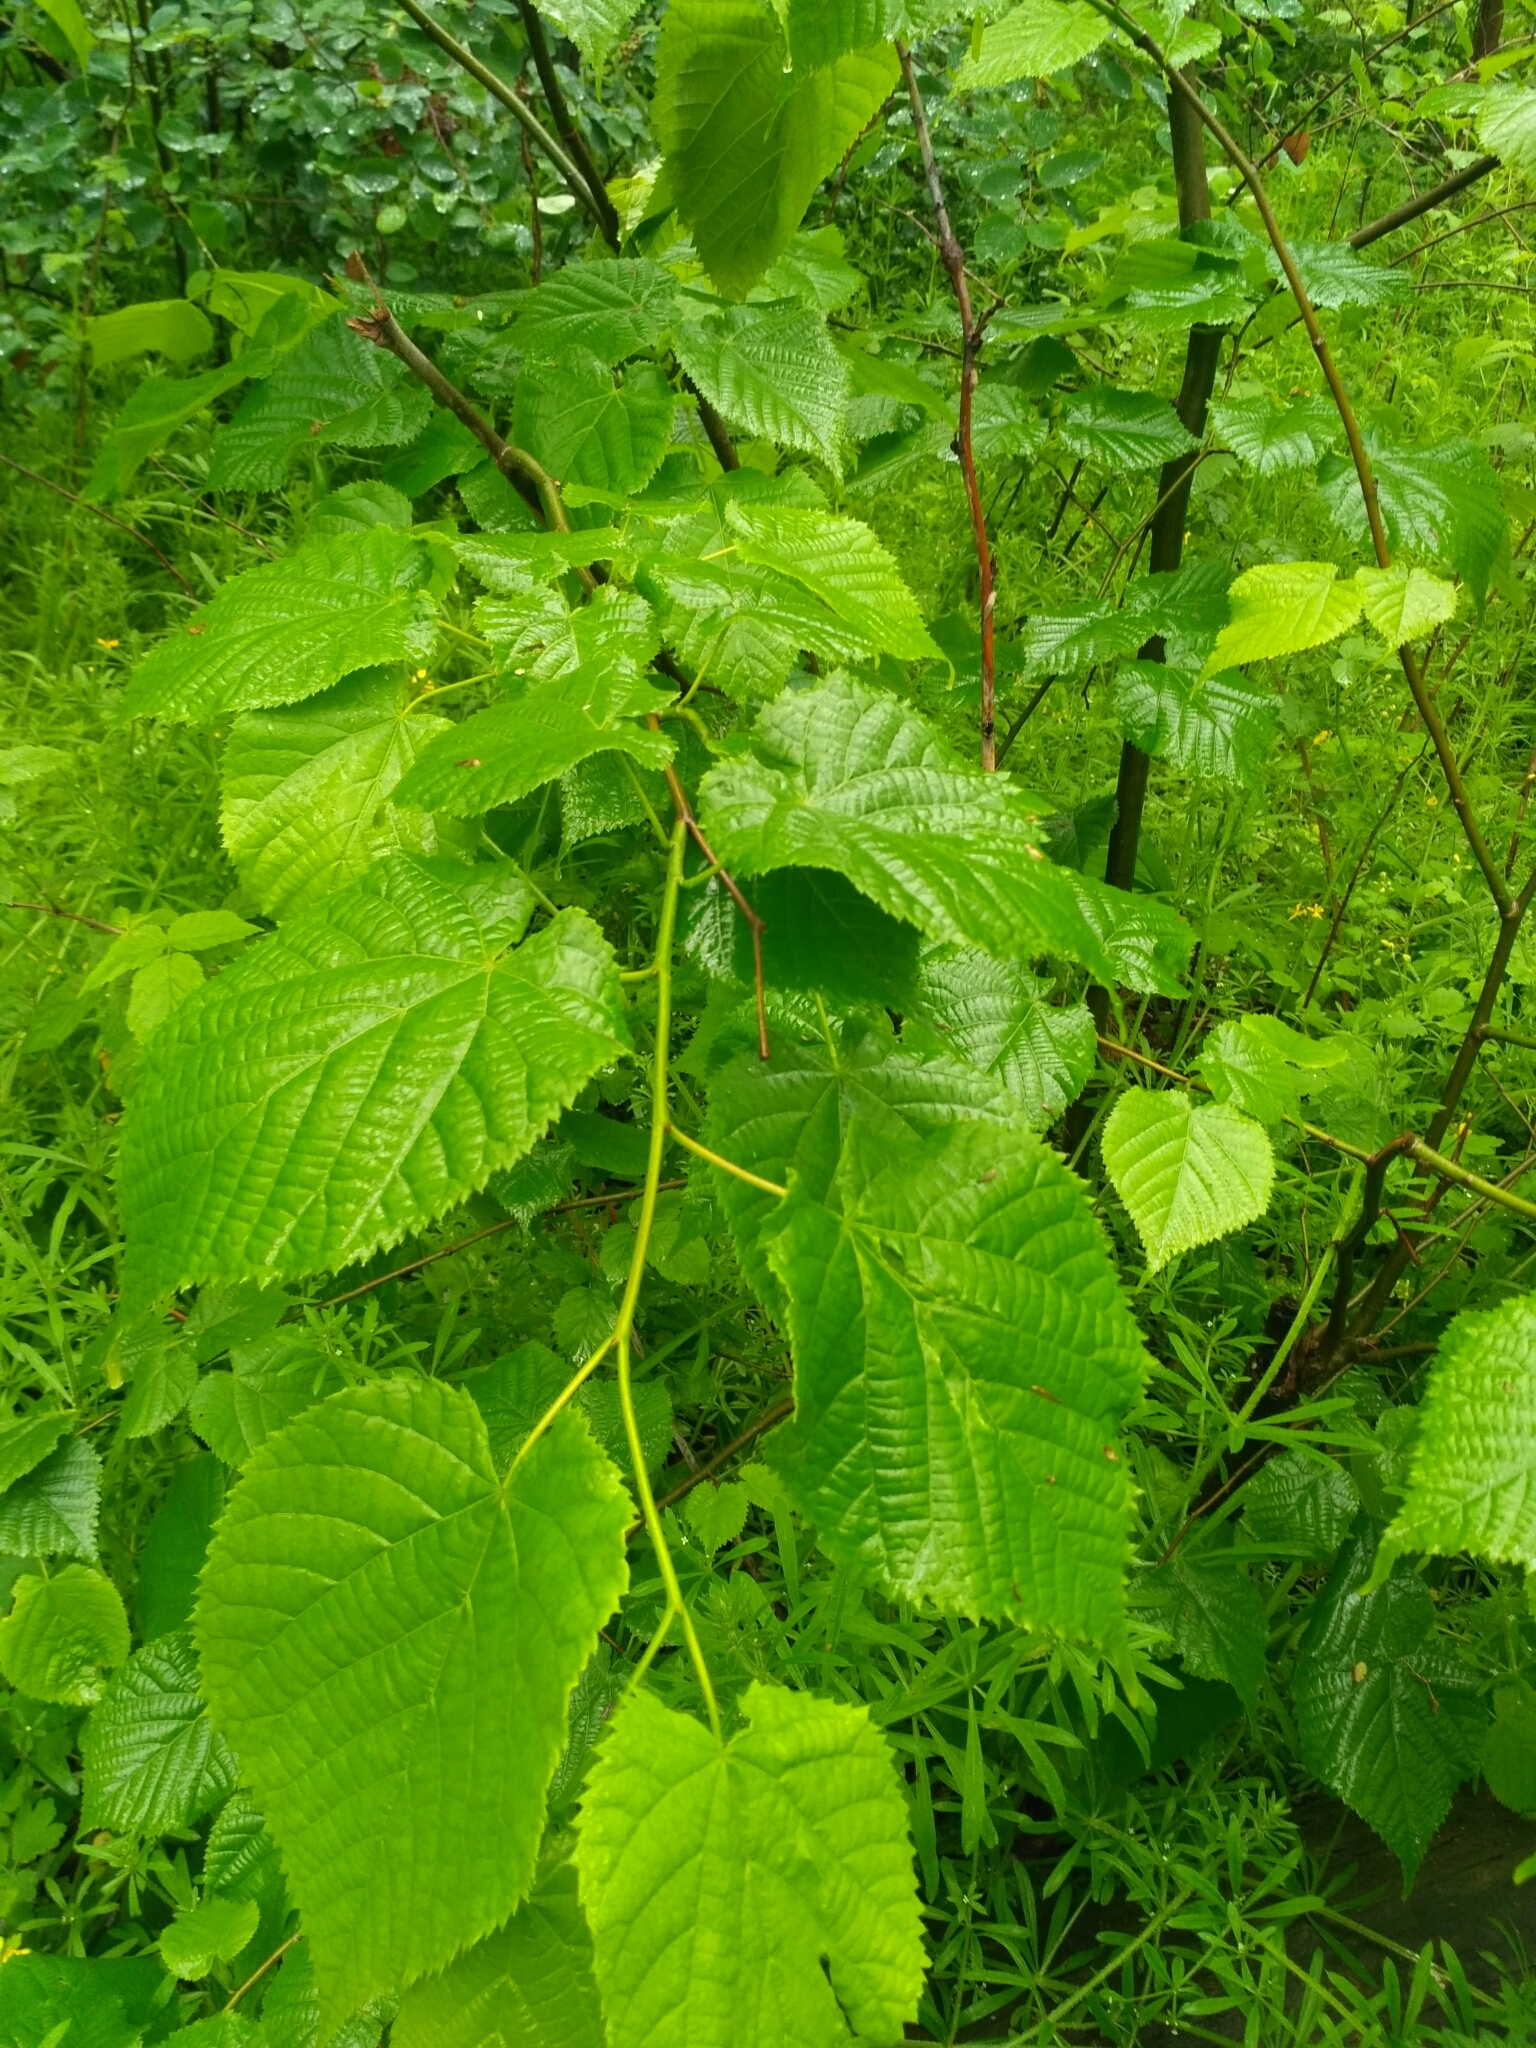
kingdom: Plantae
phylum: Tracheophyta
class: Magnoliopsida
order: Malvales
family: Malvaceae
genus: Tilia
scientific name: Tilia cordata
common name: Small-leaved lime
